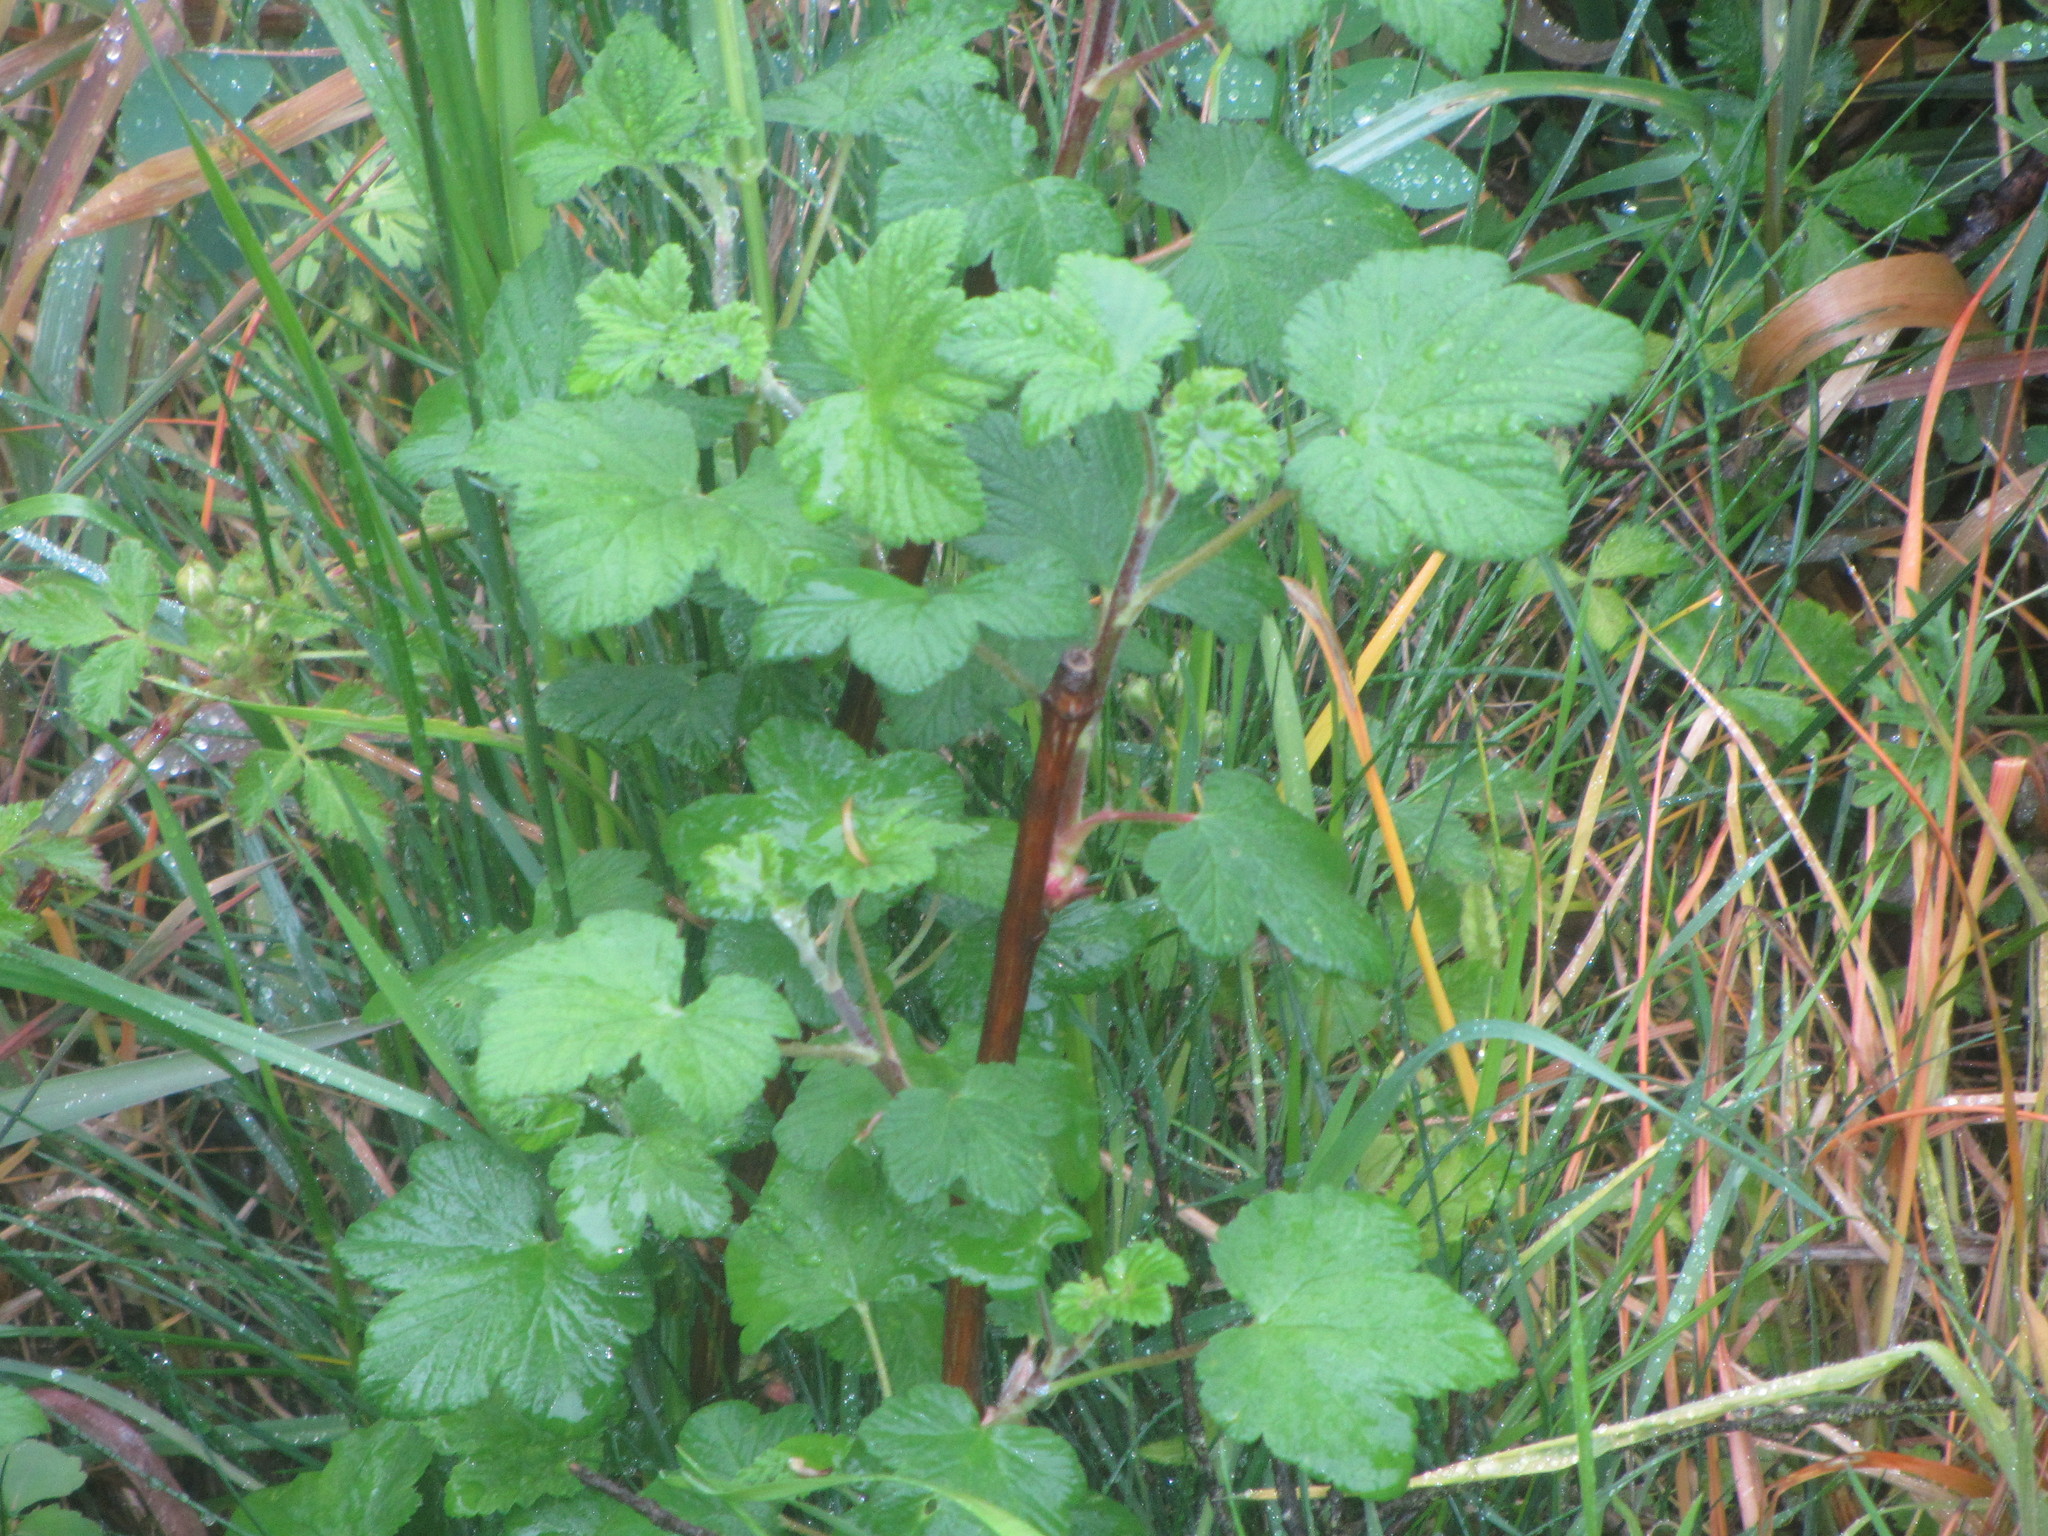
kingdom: Plantae
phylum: Tracheophyta
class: Magnoliopsida
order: Saxifragales
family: Grossulariaceae
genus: Ribes
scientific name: Ribes sanguineum
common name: Flowering currant
